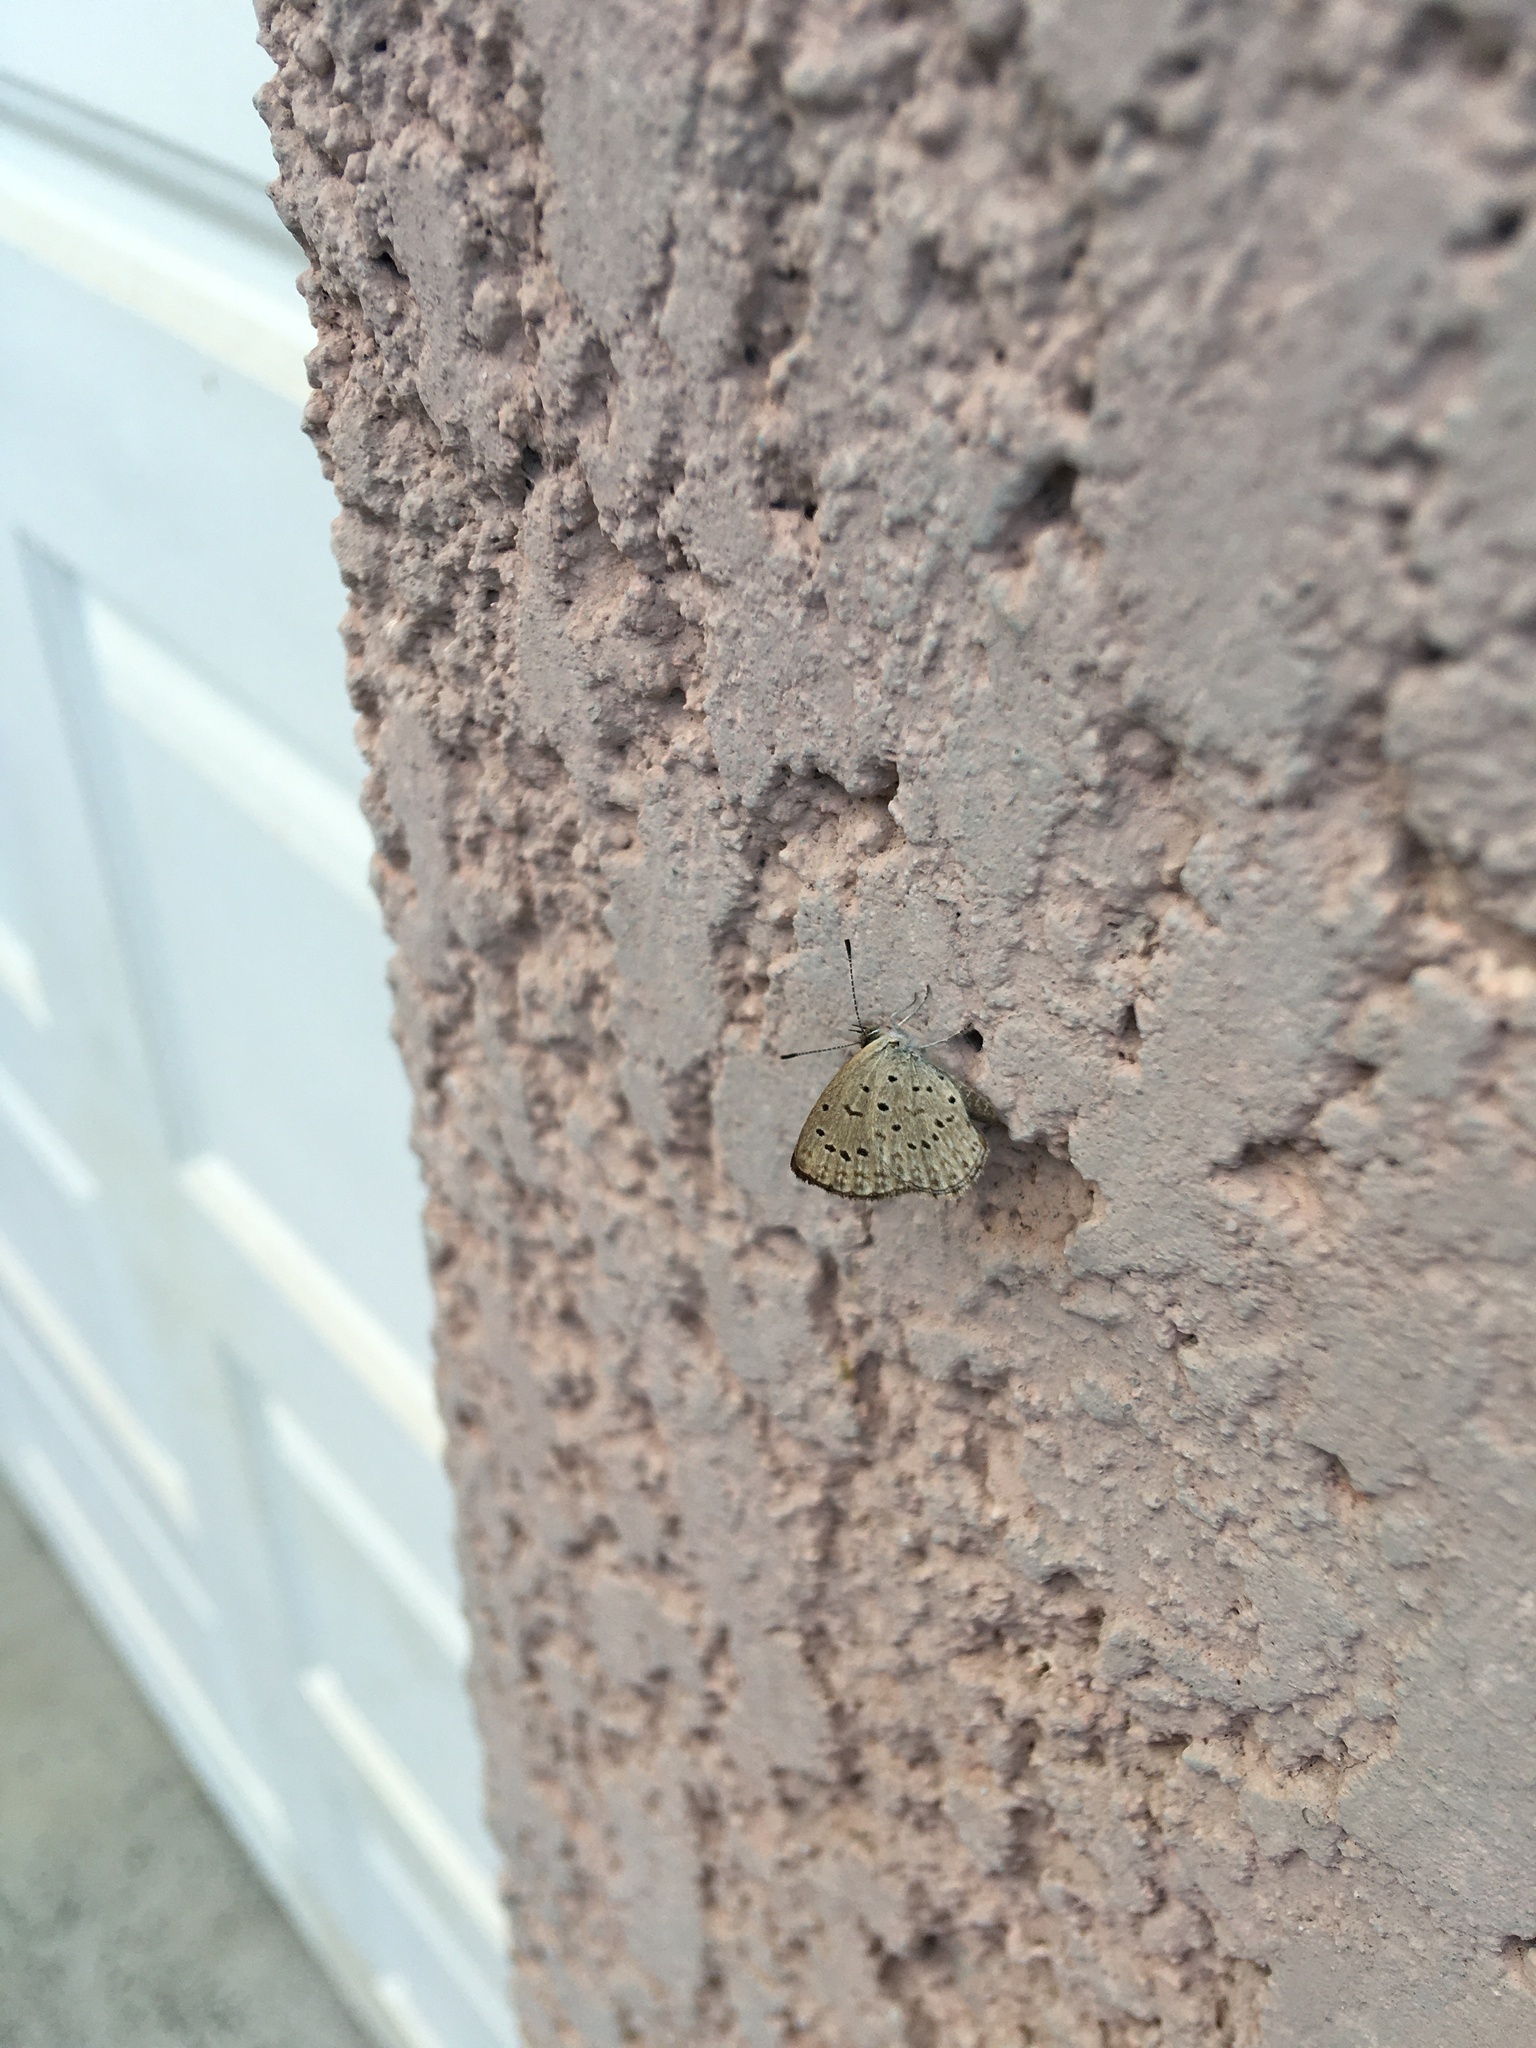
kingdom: Animalia
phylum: Arthropoda
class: Insecta
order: Lepidoptera
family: Lycaenidae
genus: Zizeeria
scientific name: Zizeeria knysna
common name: African grass blue
